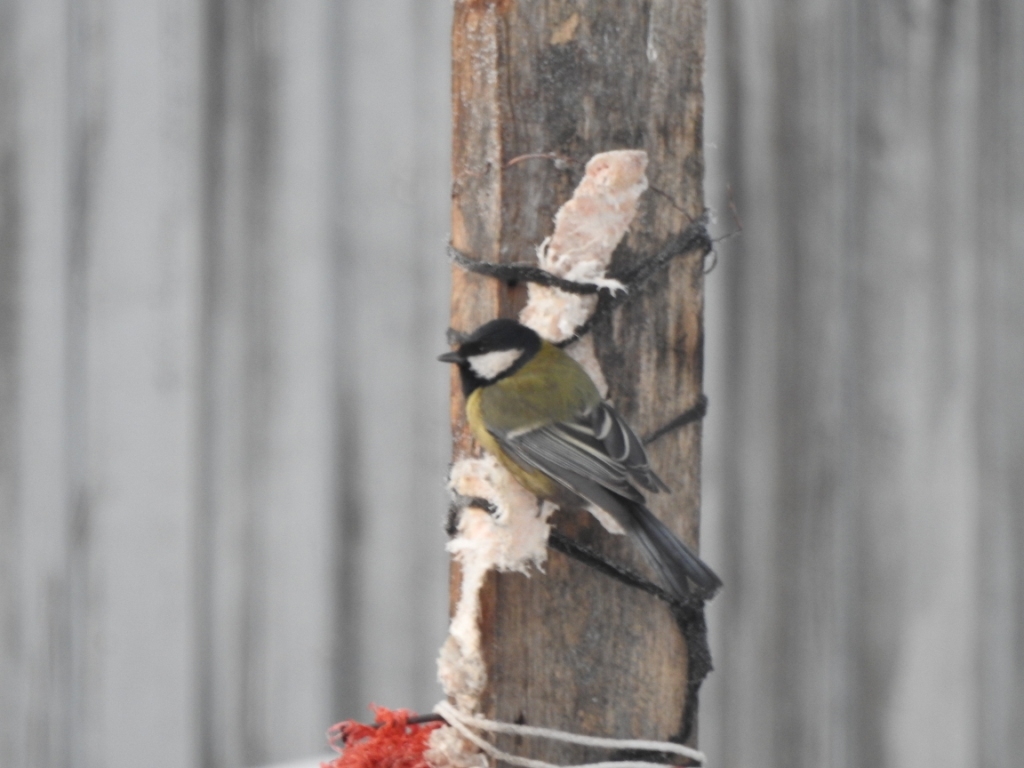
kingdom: Animalia
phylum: Chordata
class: Aves
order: Passeriformes
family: Paridae
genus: Parus
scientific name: Parus major
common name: Great tit
